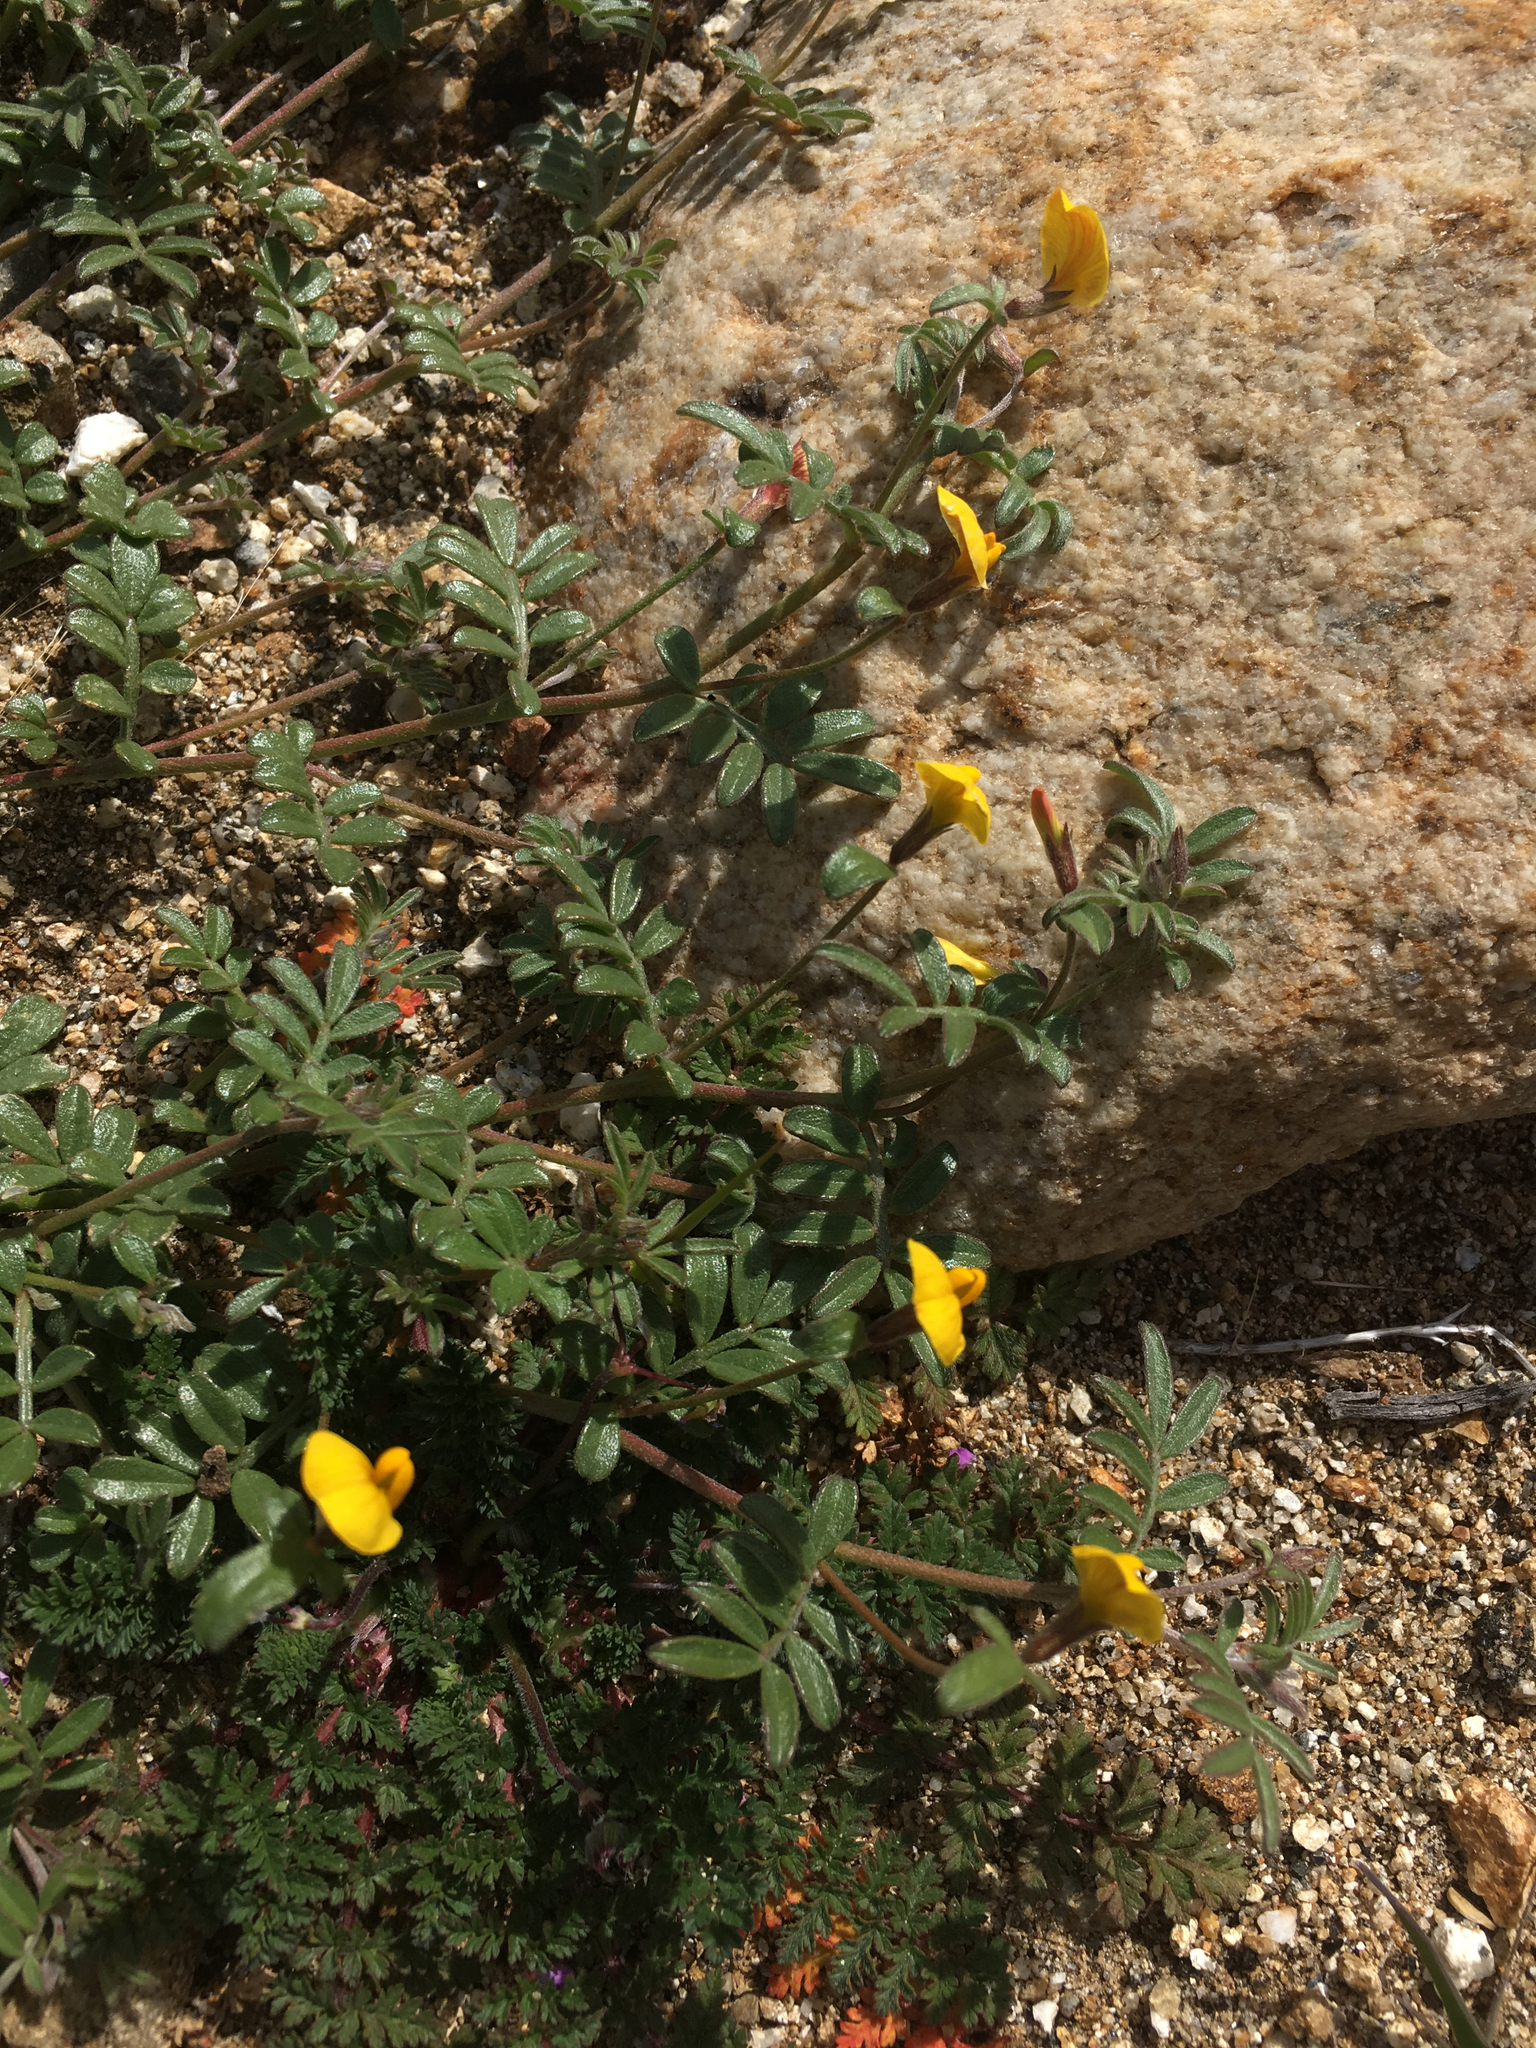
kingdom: Plantae
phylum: Tracheophyta
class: Magnoliopsida
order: Fabales
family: Fabaceae
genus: Acmispon
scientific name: Acmispon strigosus
